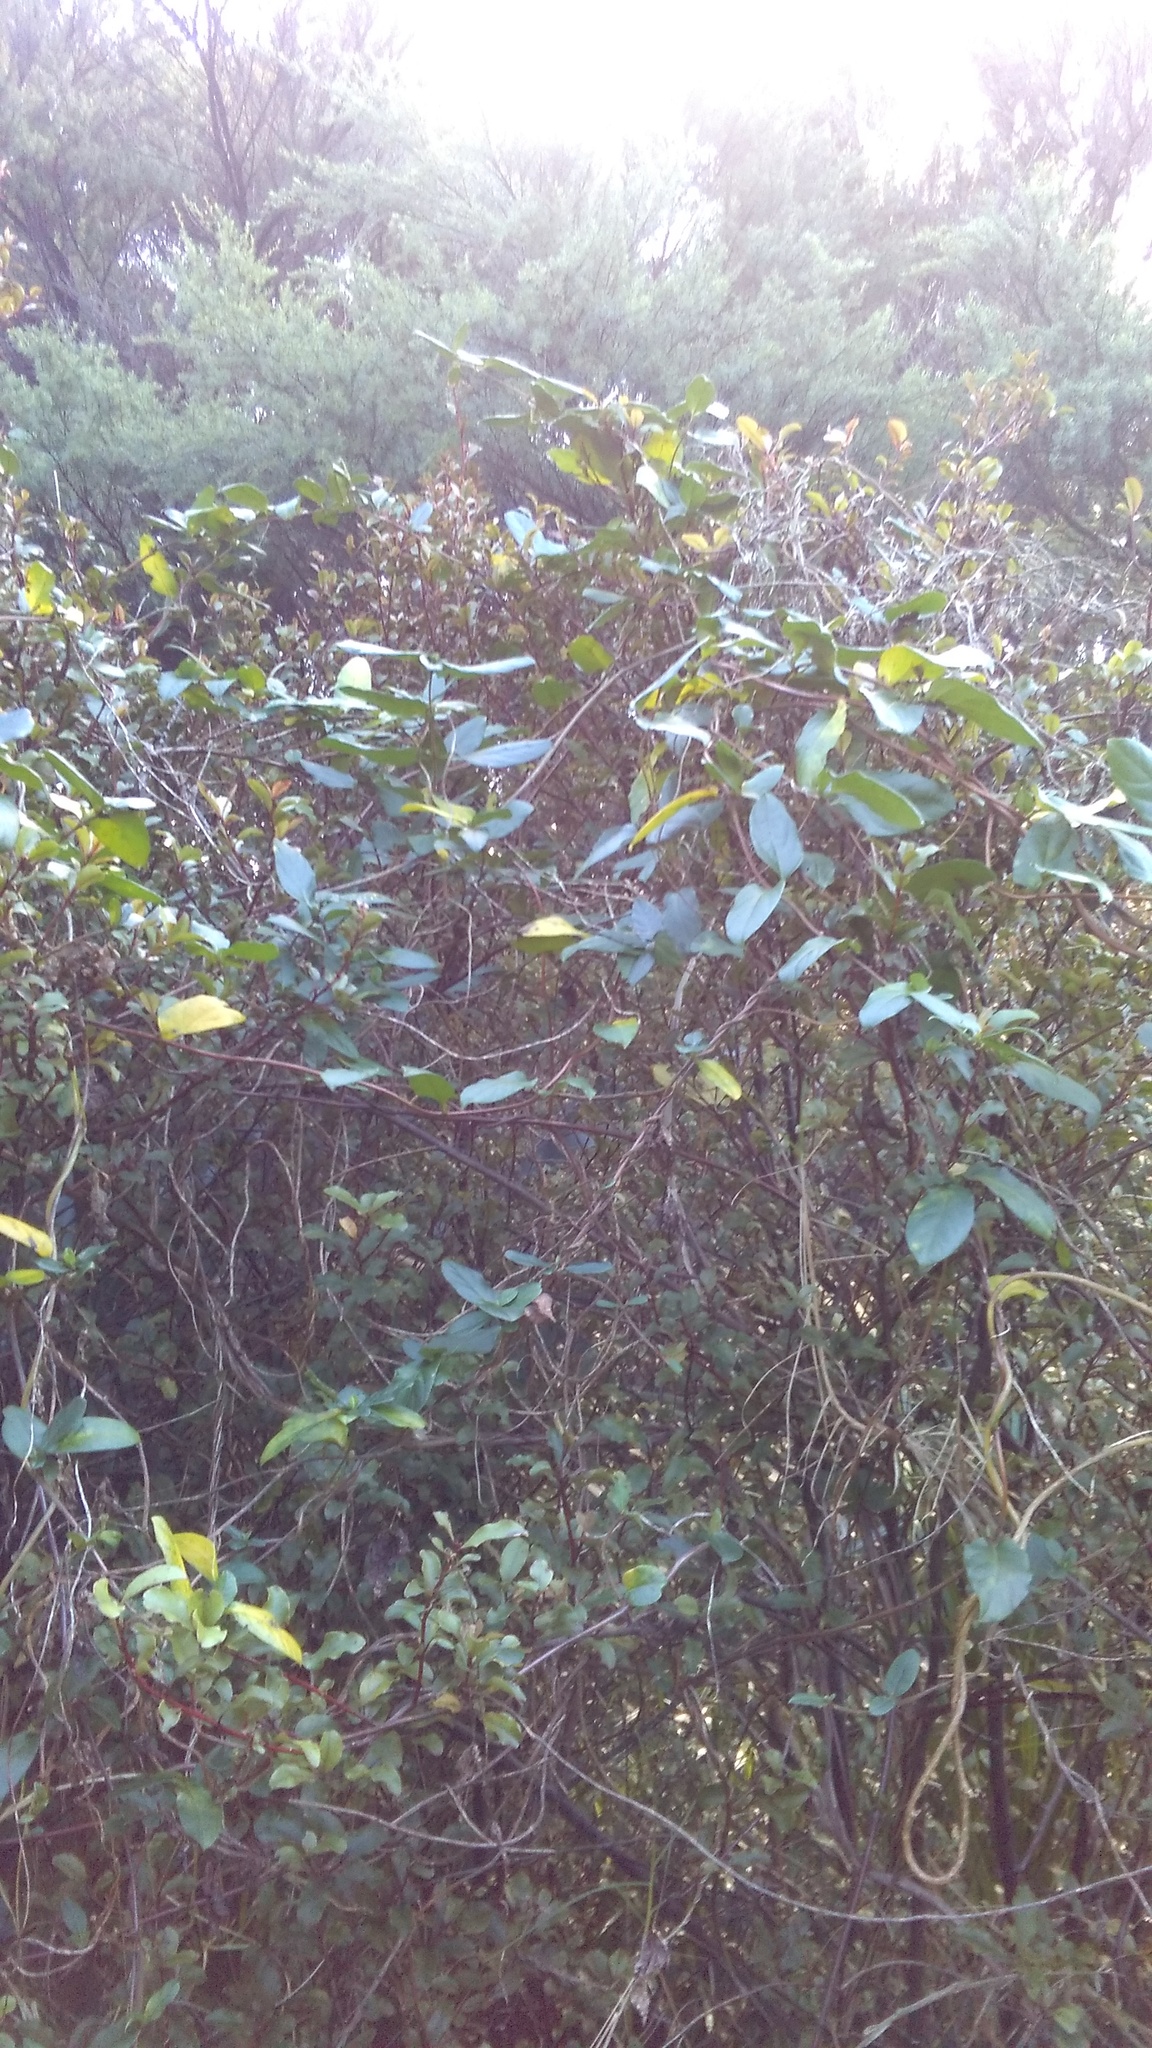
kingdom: Plantae
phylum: Tracheophyta
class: Magnoliopsida
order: Dipsacales
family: Caprifoliaceae
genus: Lonicera
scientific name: Lonicera japonica
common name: Japanese honeysuckle
